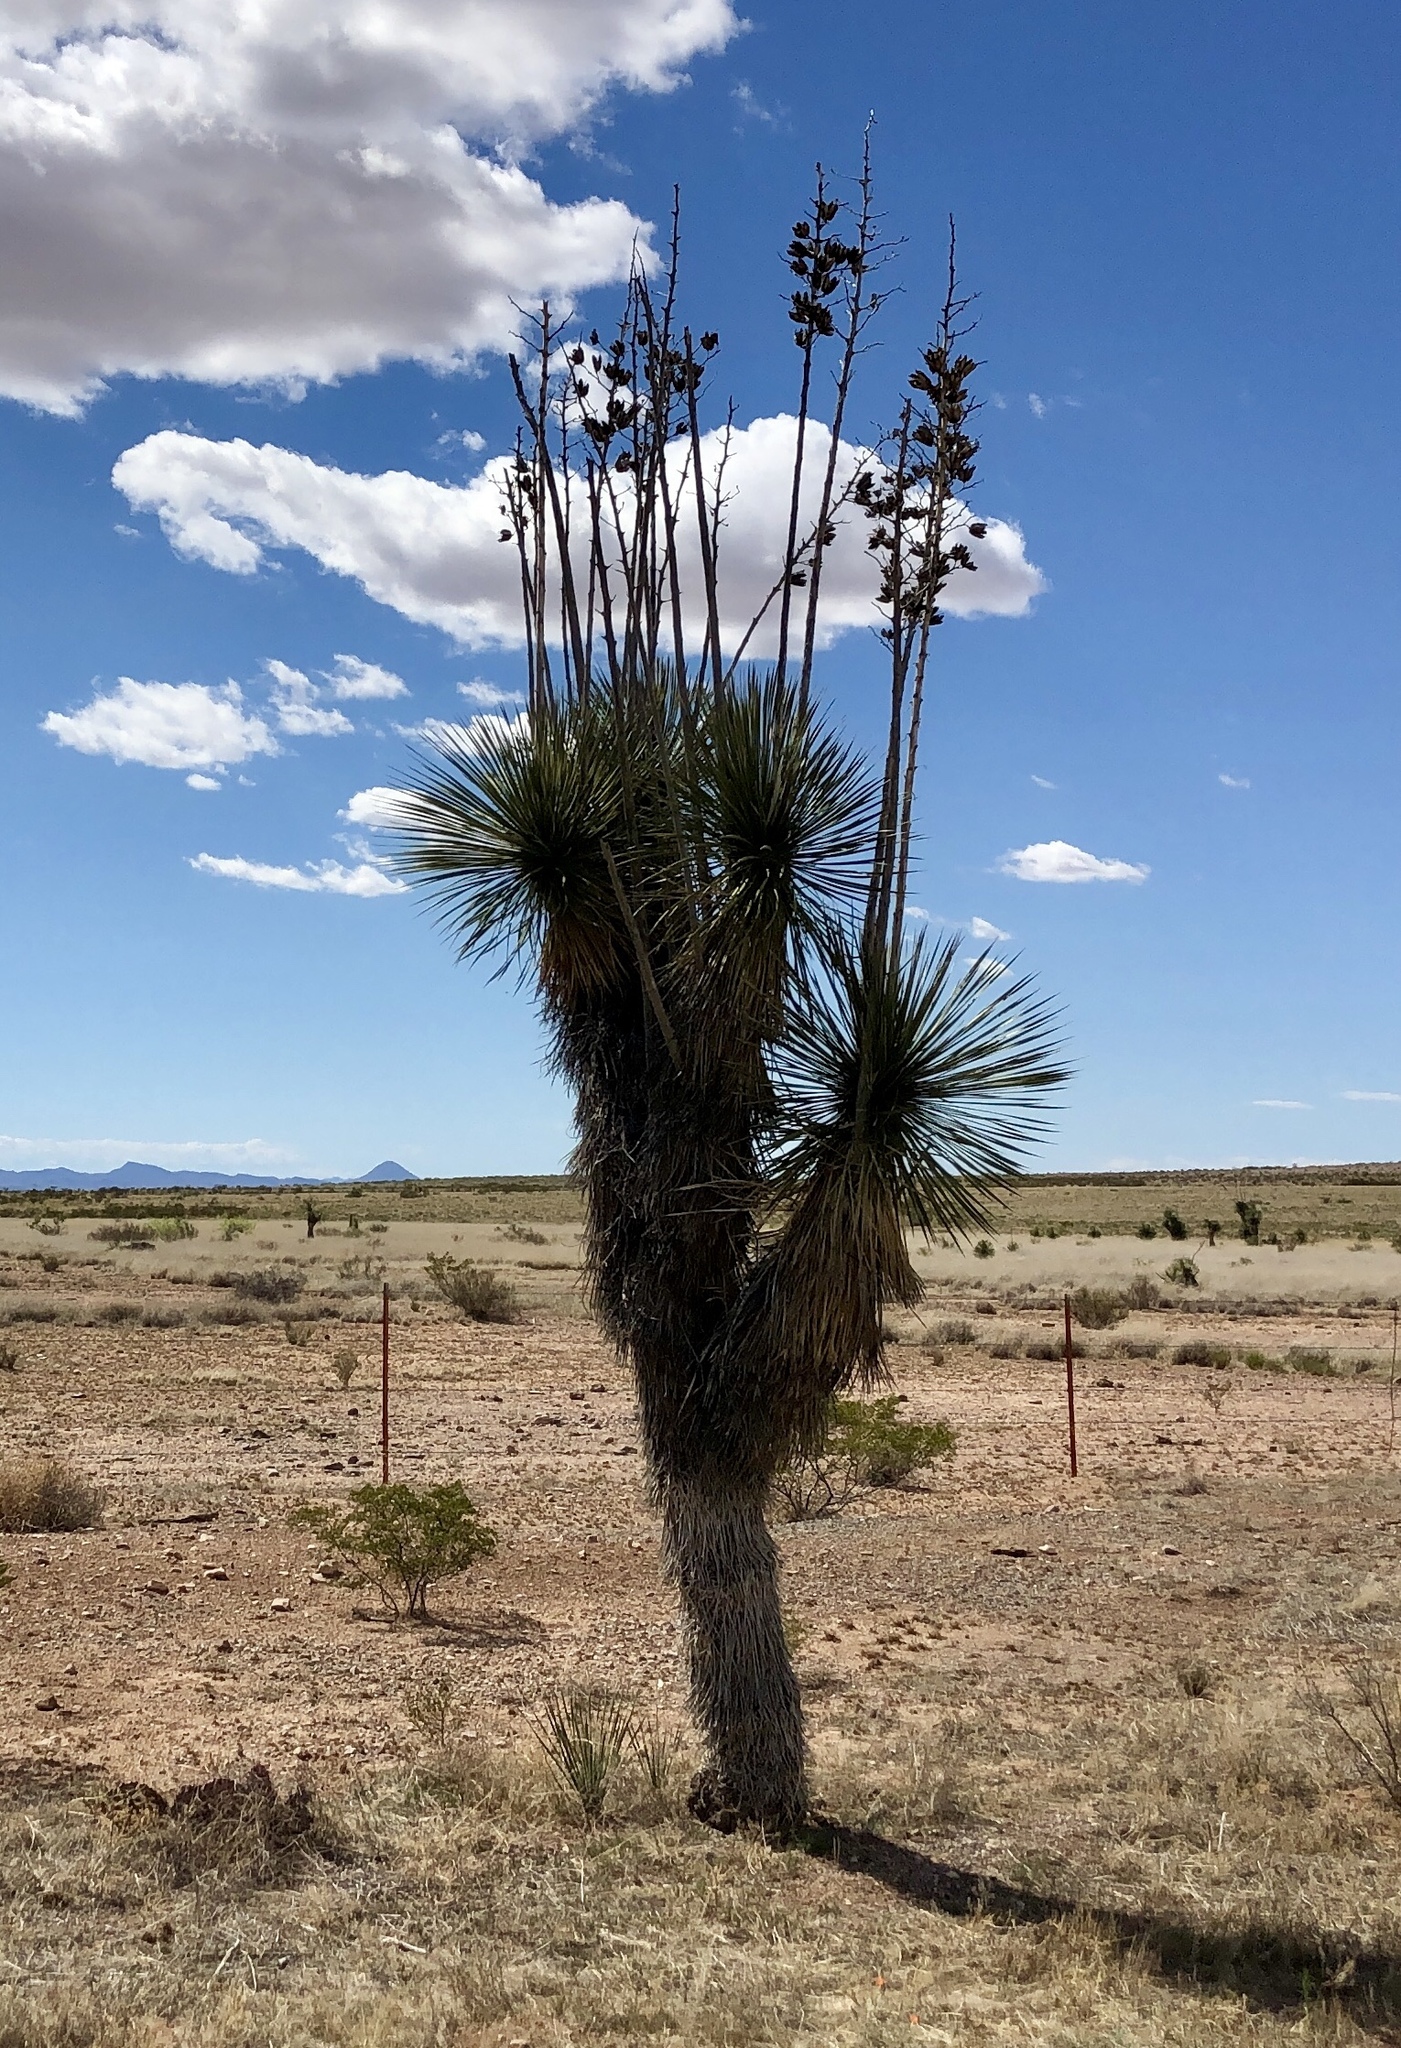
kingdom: Plantae
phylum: Tracheophyta
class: Liliopsida
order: Asparagales
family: Asparagaceae
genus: Yucca
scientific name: Yucca elata
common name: Palmella
